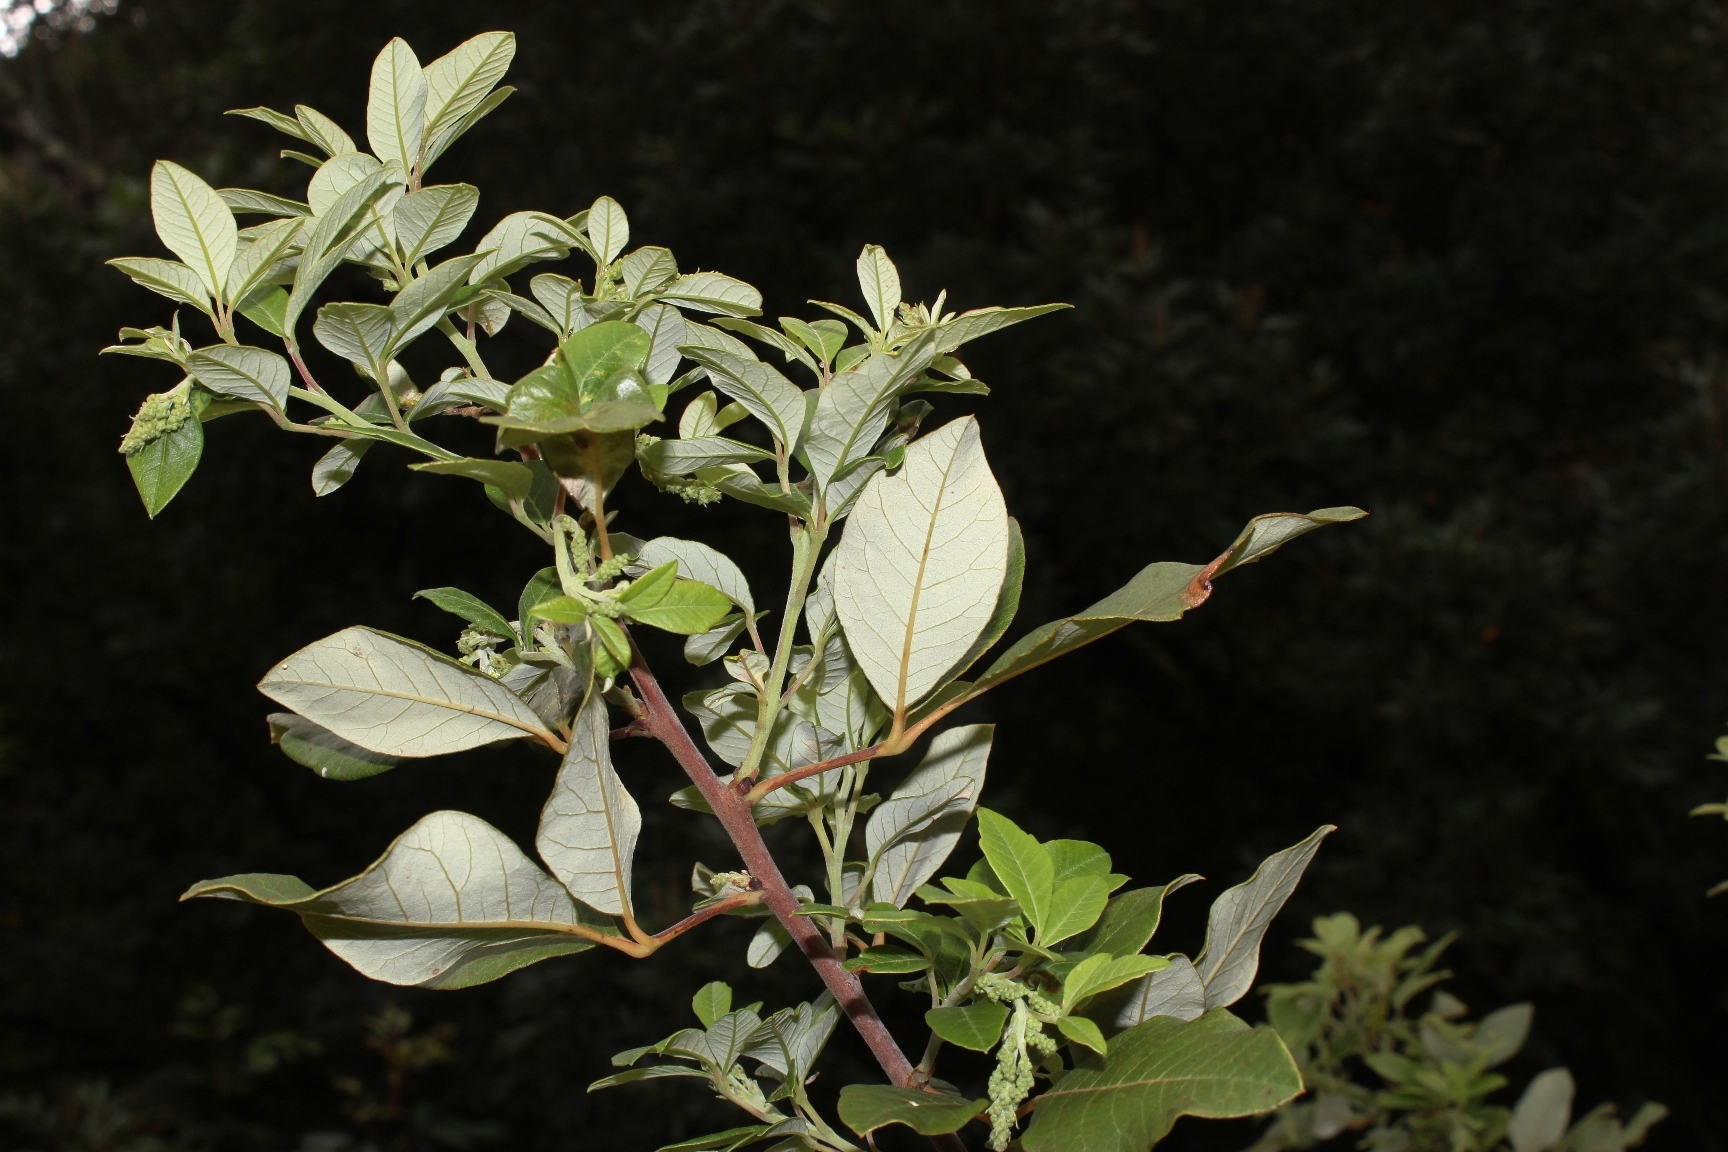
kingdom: Plantae
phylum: Tracheophyta
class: Magnoliopsida
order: Sapindales
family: Anacardiaceae
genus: Searsia
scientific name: Searsia tomentosa
